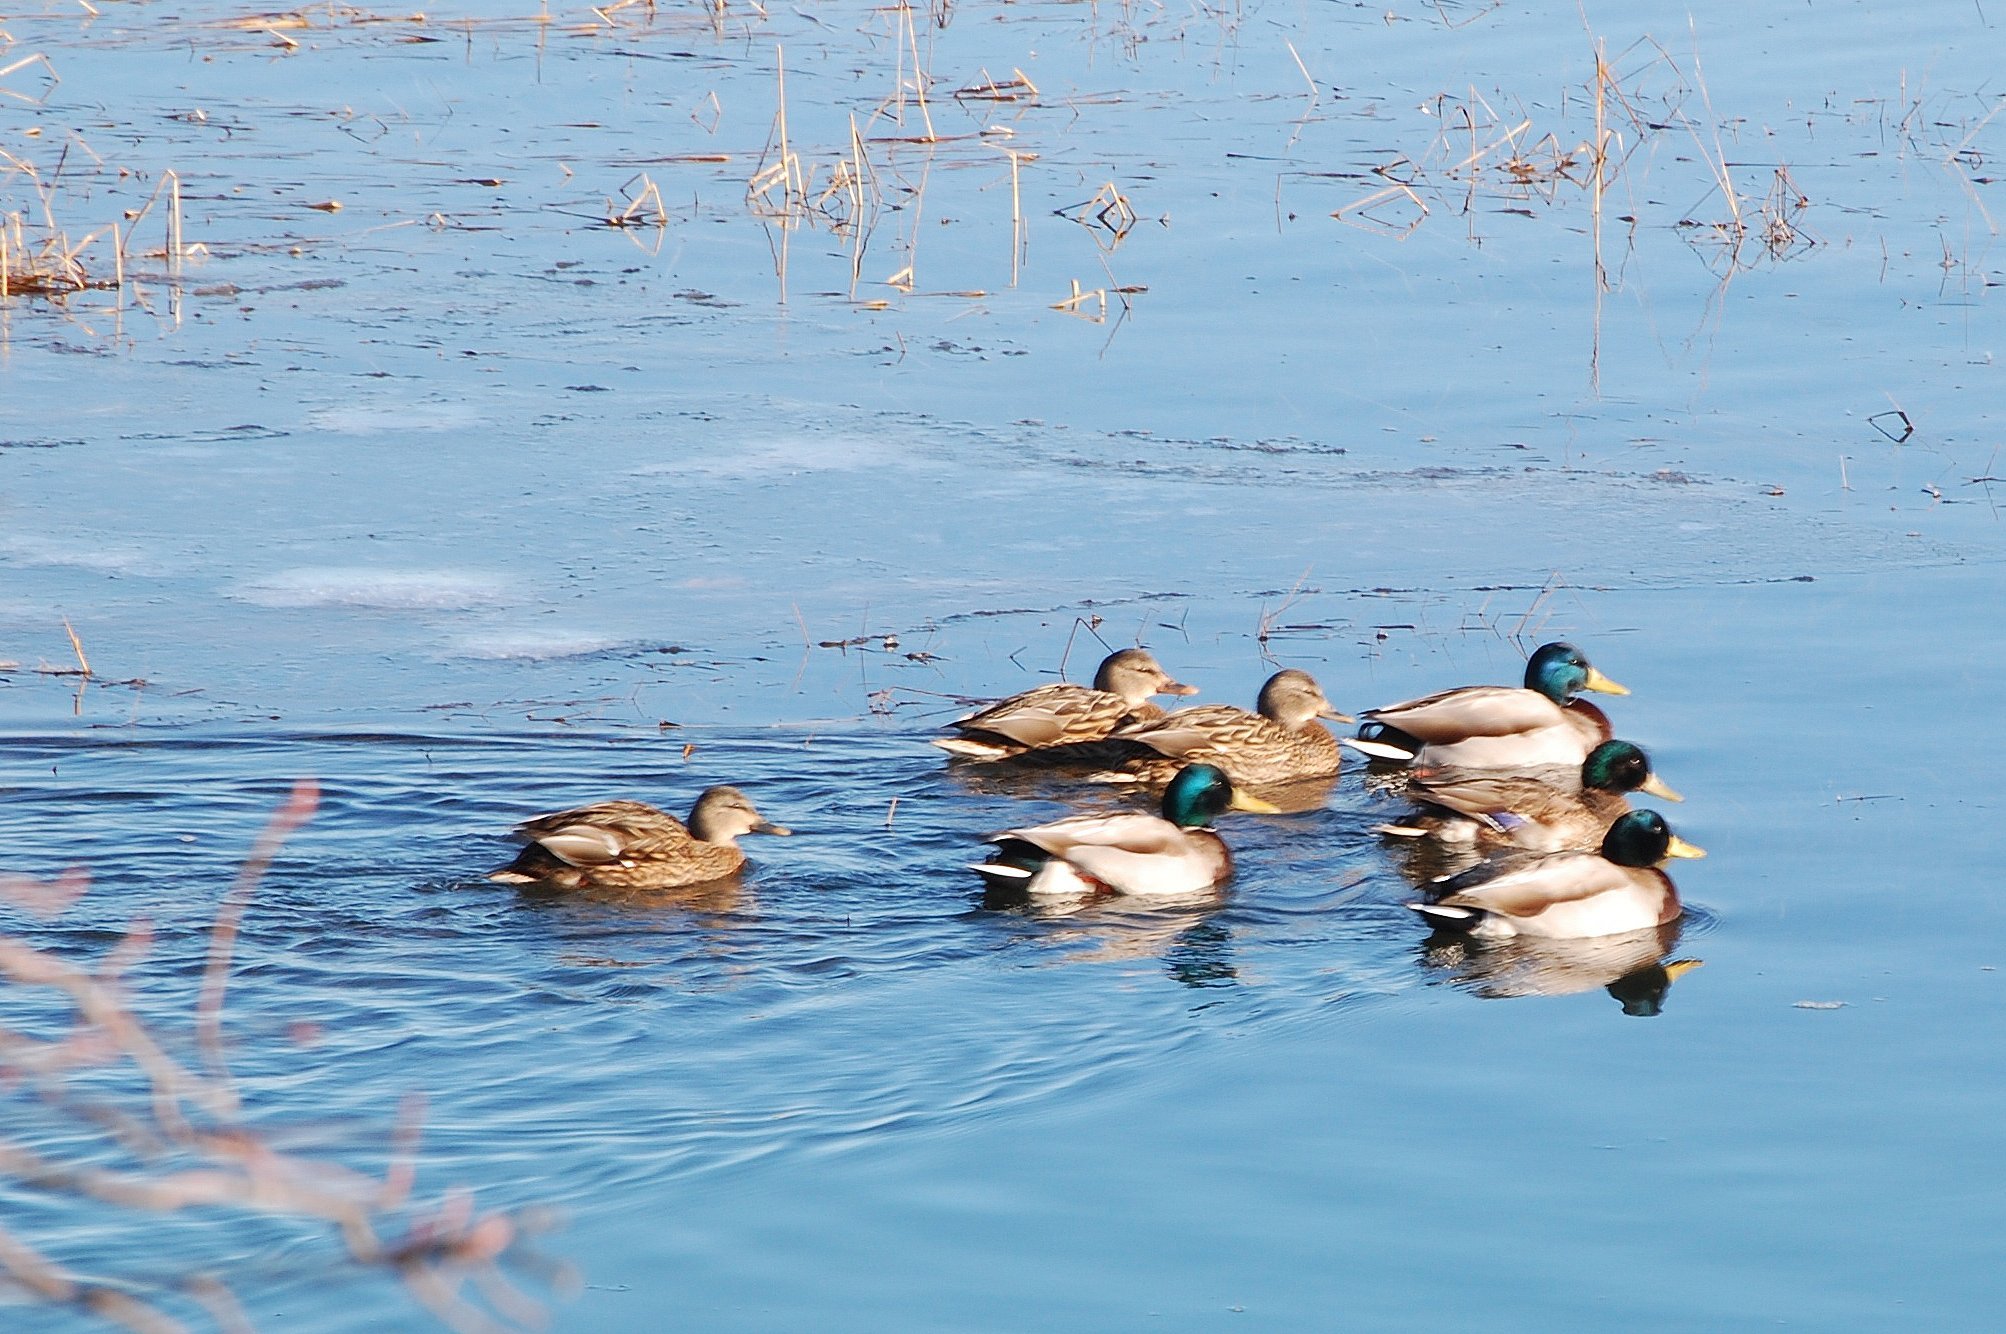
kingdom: Animalia
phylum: Chordata
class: Aves
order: Anseriformes
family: Anatidae
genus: Anas
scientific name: Anas platyrhynchos
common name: Mallard
